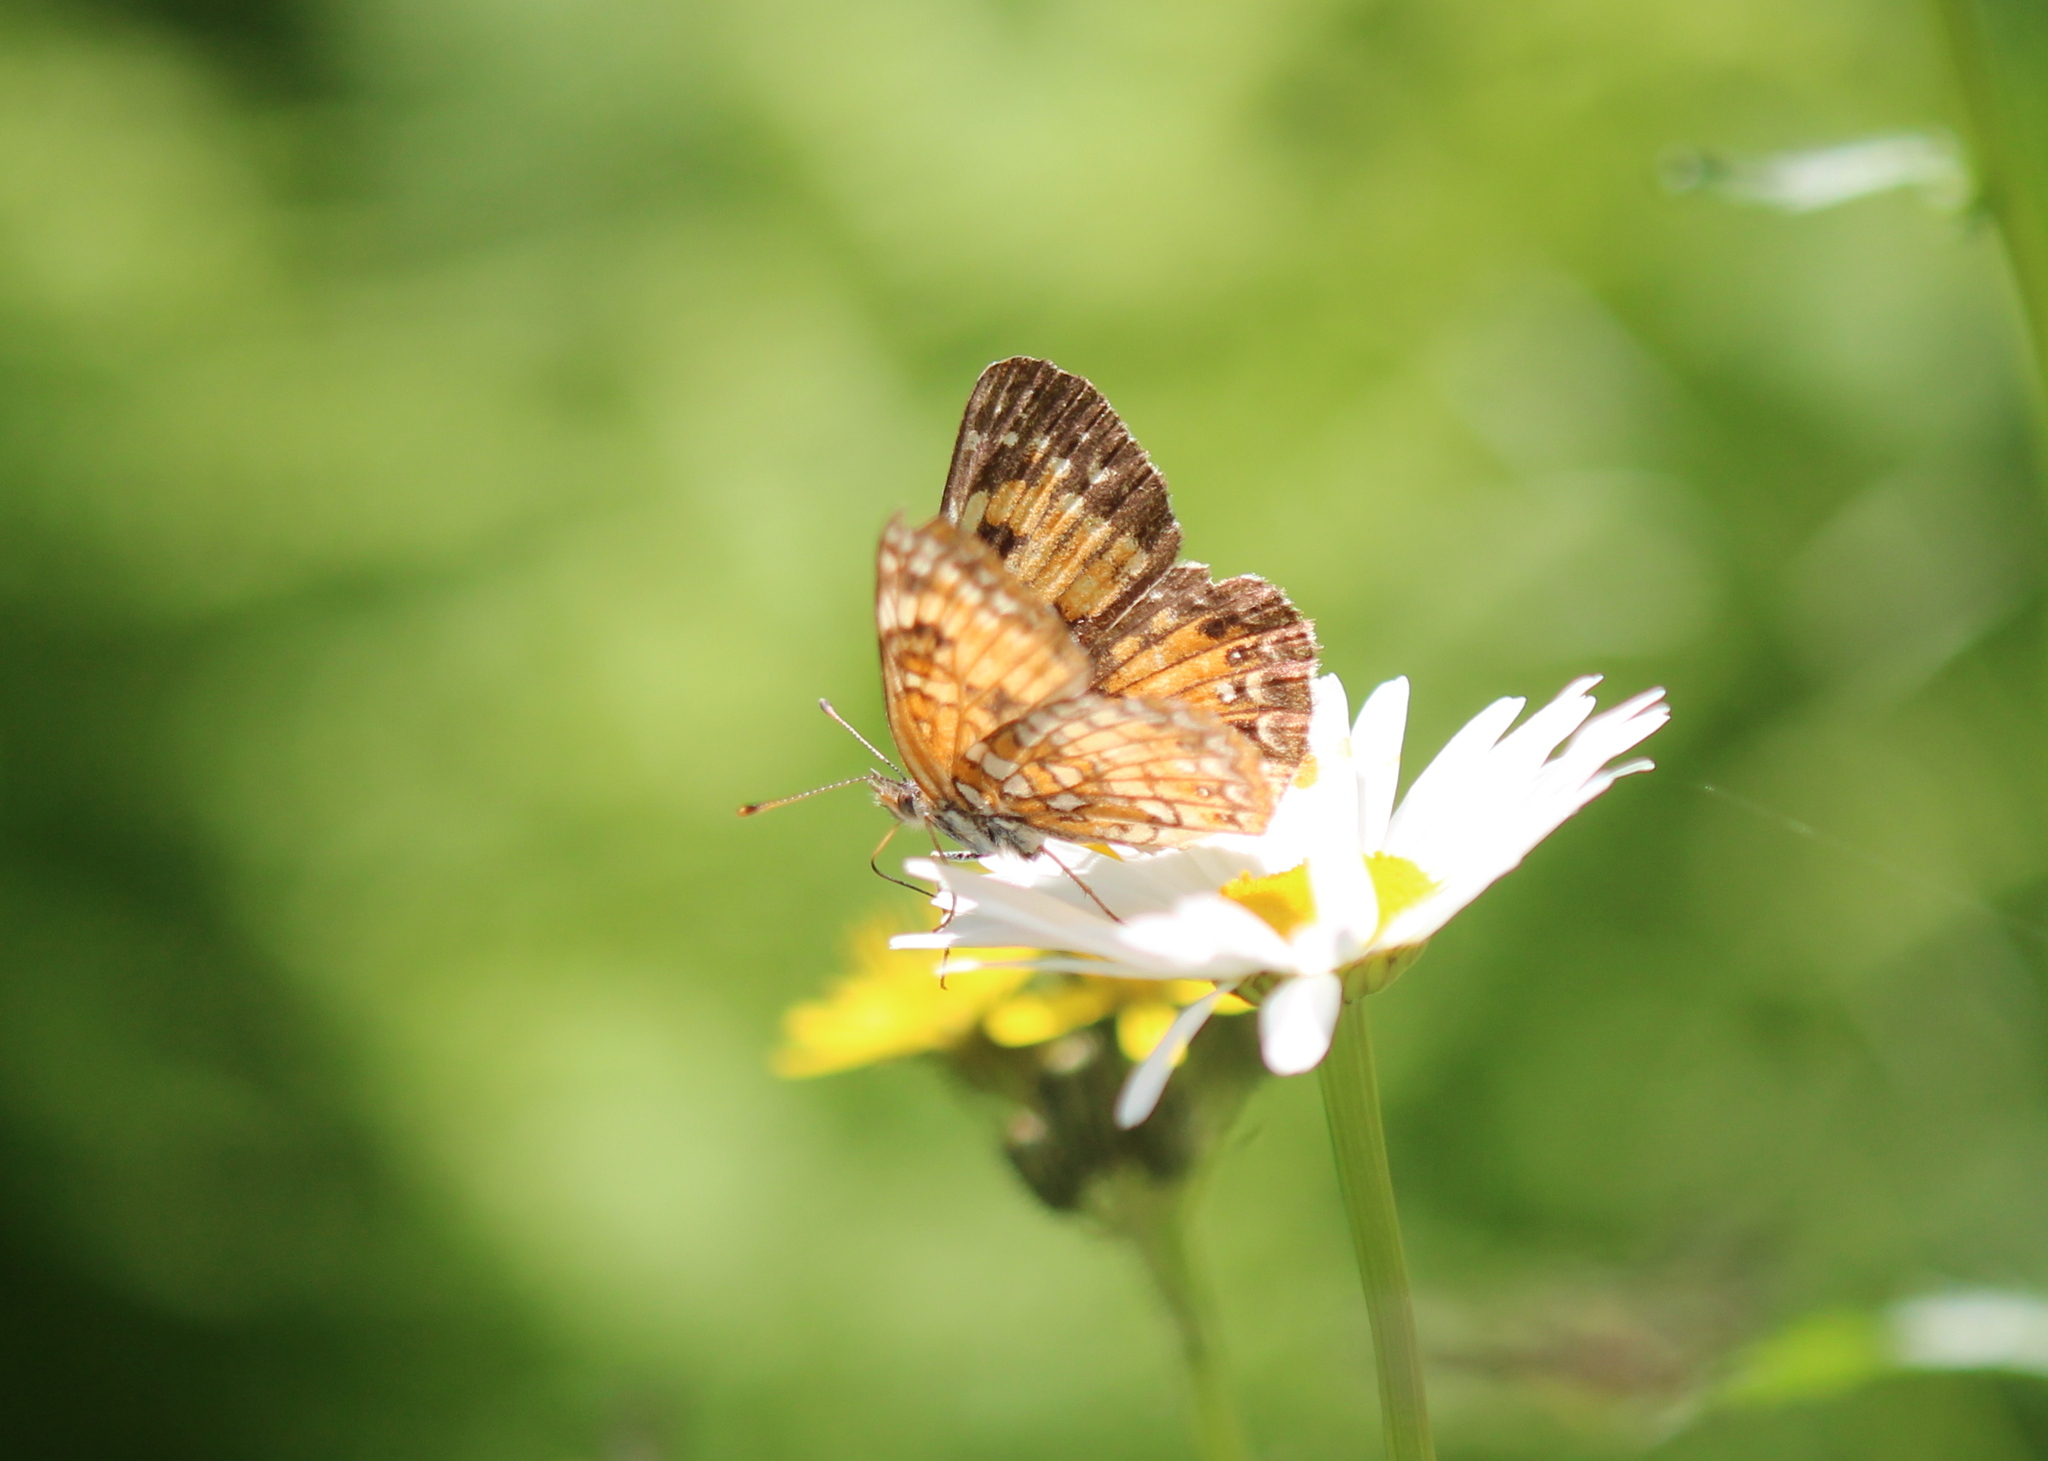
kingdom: Animalia
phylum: Arthropoda
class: Insecta
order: Lepidoptera
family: Nymphalidae
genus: Chlosyne
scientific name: Chlosyne harrisii
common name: Harris's checkerspot
